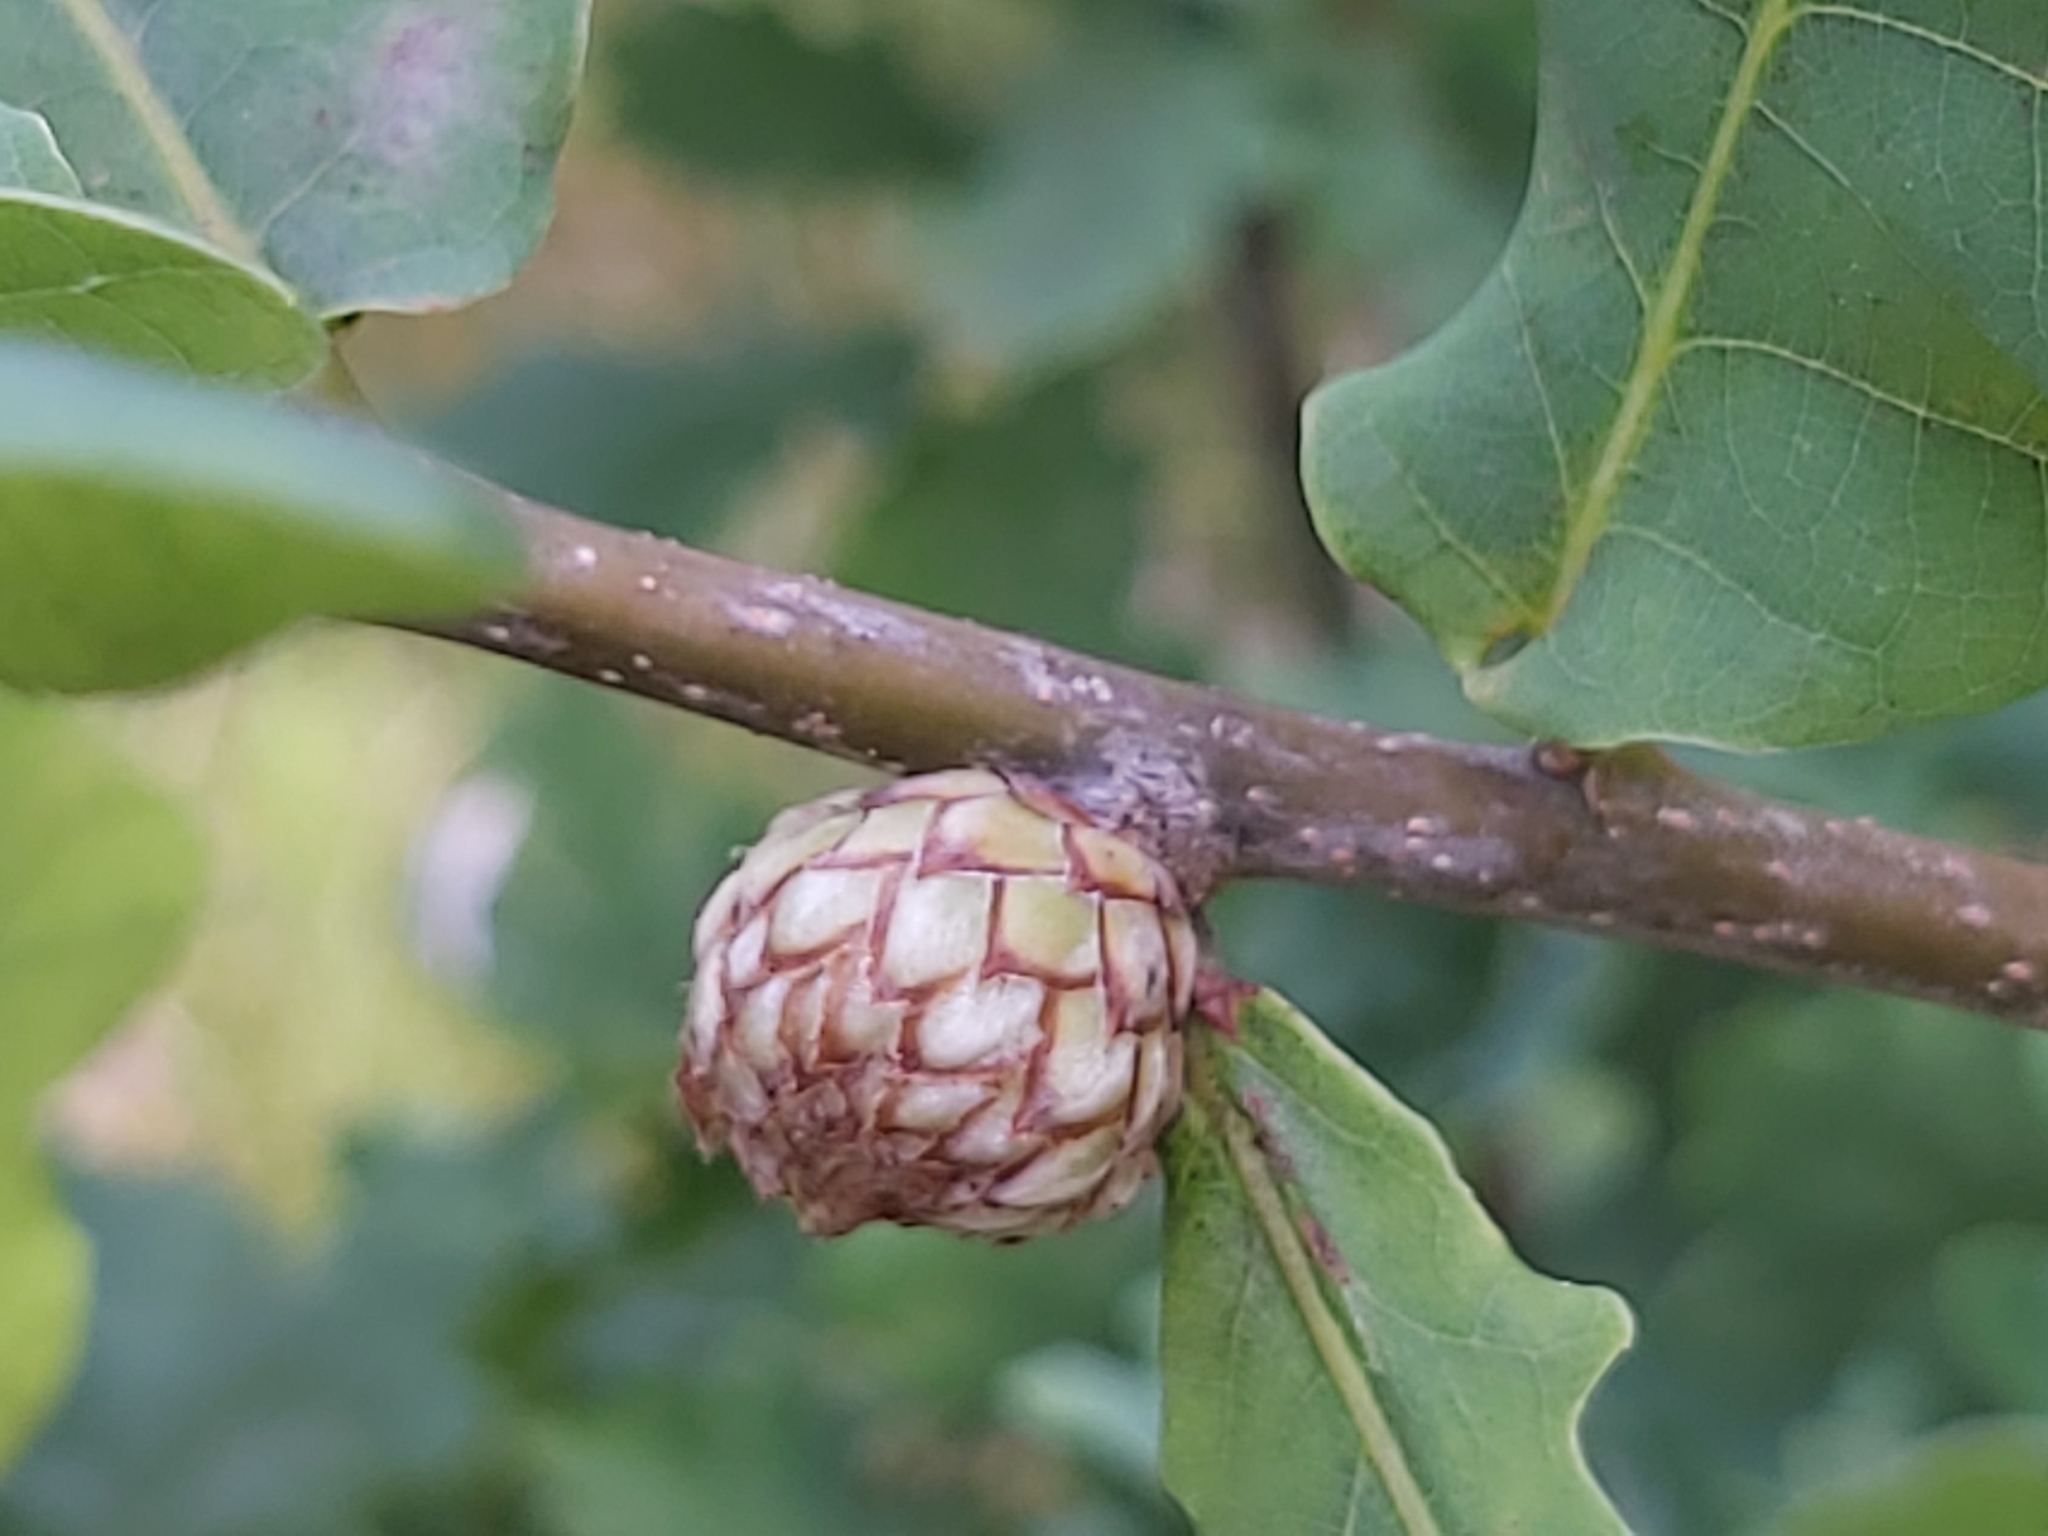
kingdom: Animalia
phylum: Arthropoda
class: Insecta
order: Hymenoptera
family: Cynipidae
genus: Andricus
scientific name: Andricus foecundatrix
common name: Artichoke gall
